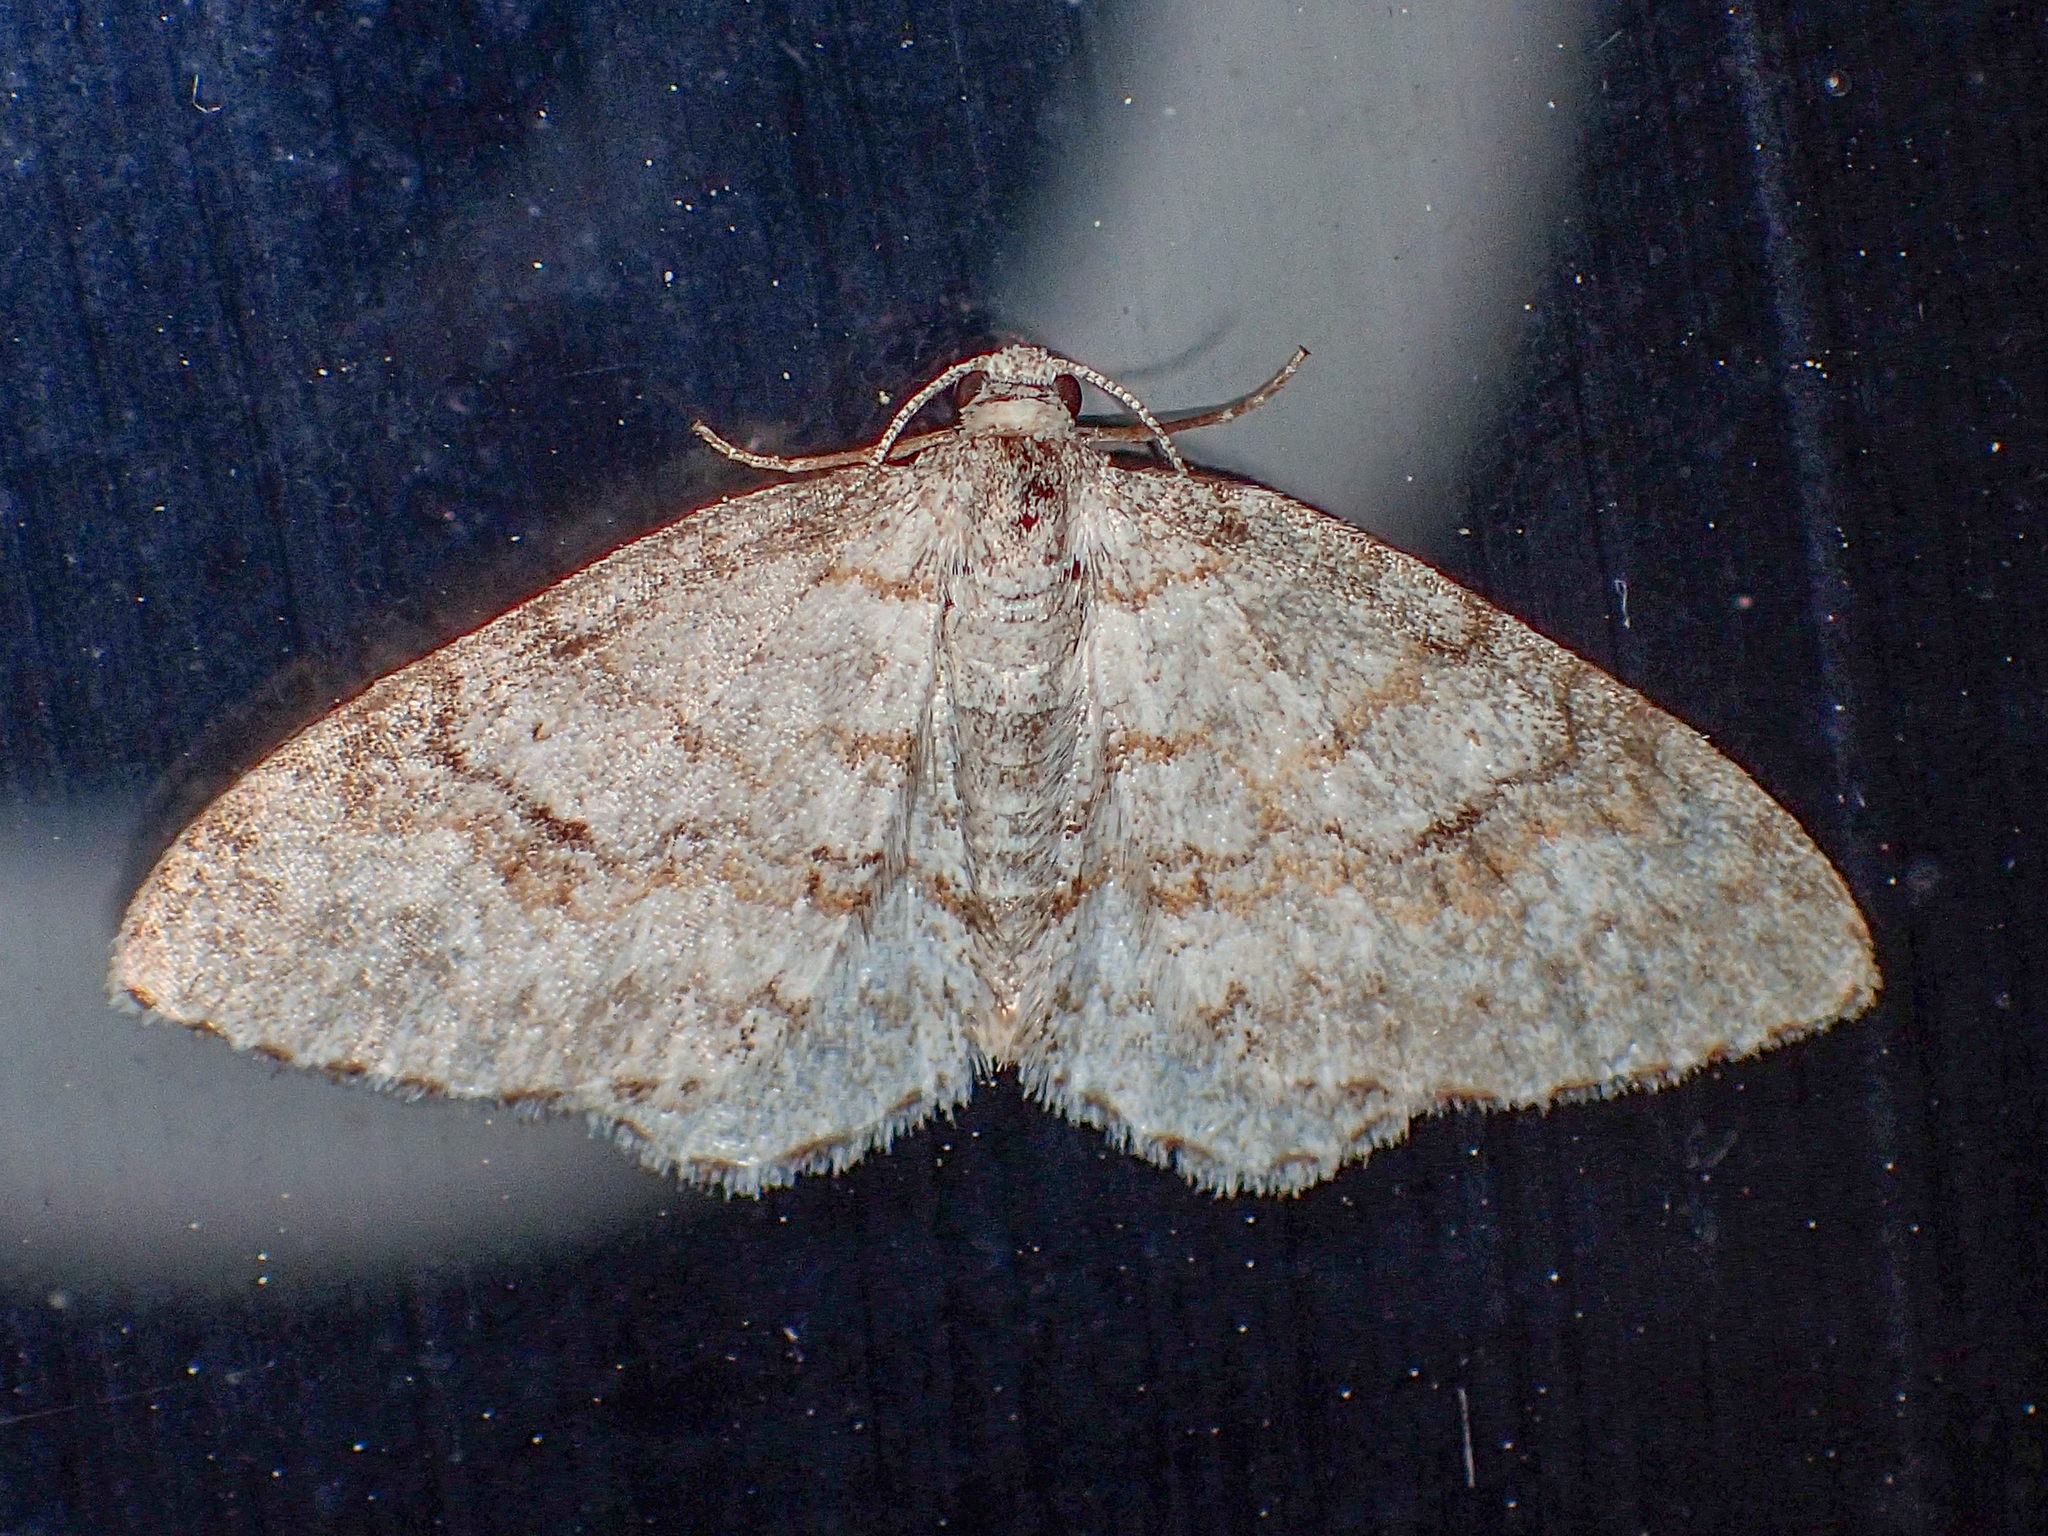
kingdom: Animalia
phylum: Arthropoda
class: Insecta
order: Lepidoptera
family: Geometridae
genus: Venusia
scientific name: Venusia comptaria
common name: Brown-shaded carpet
